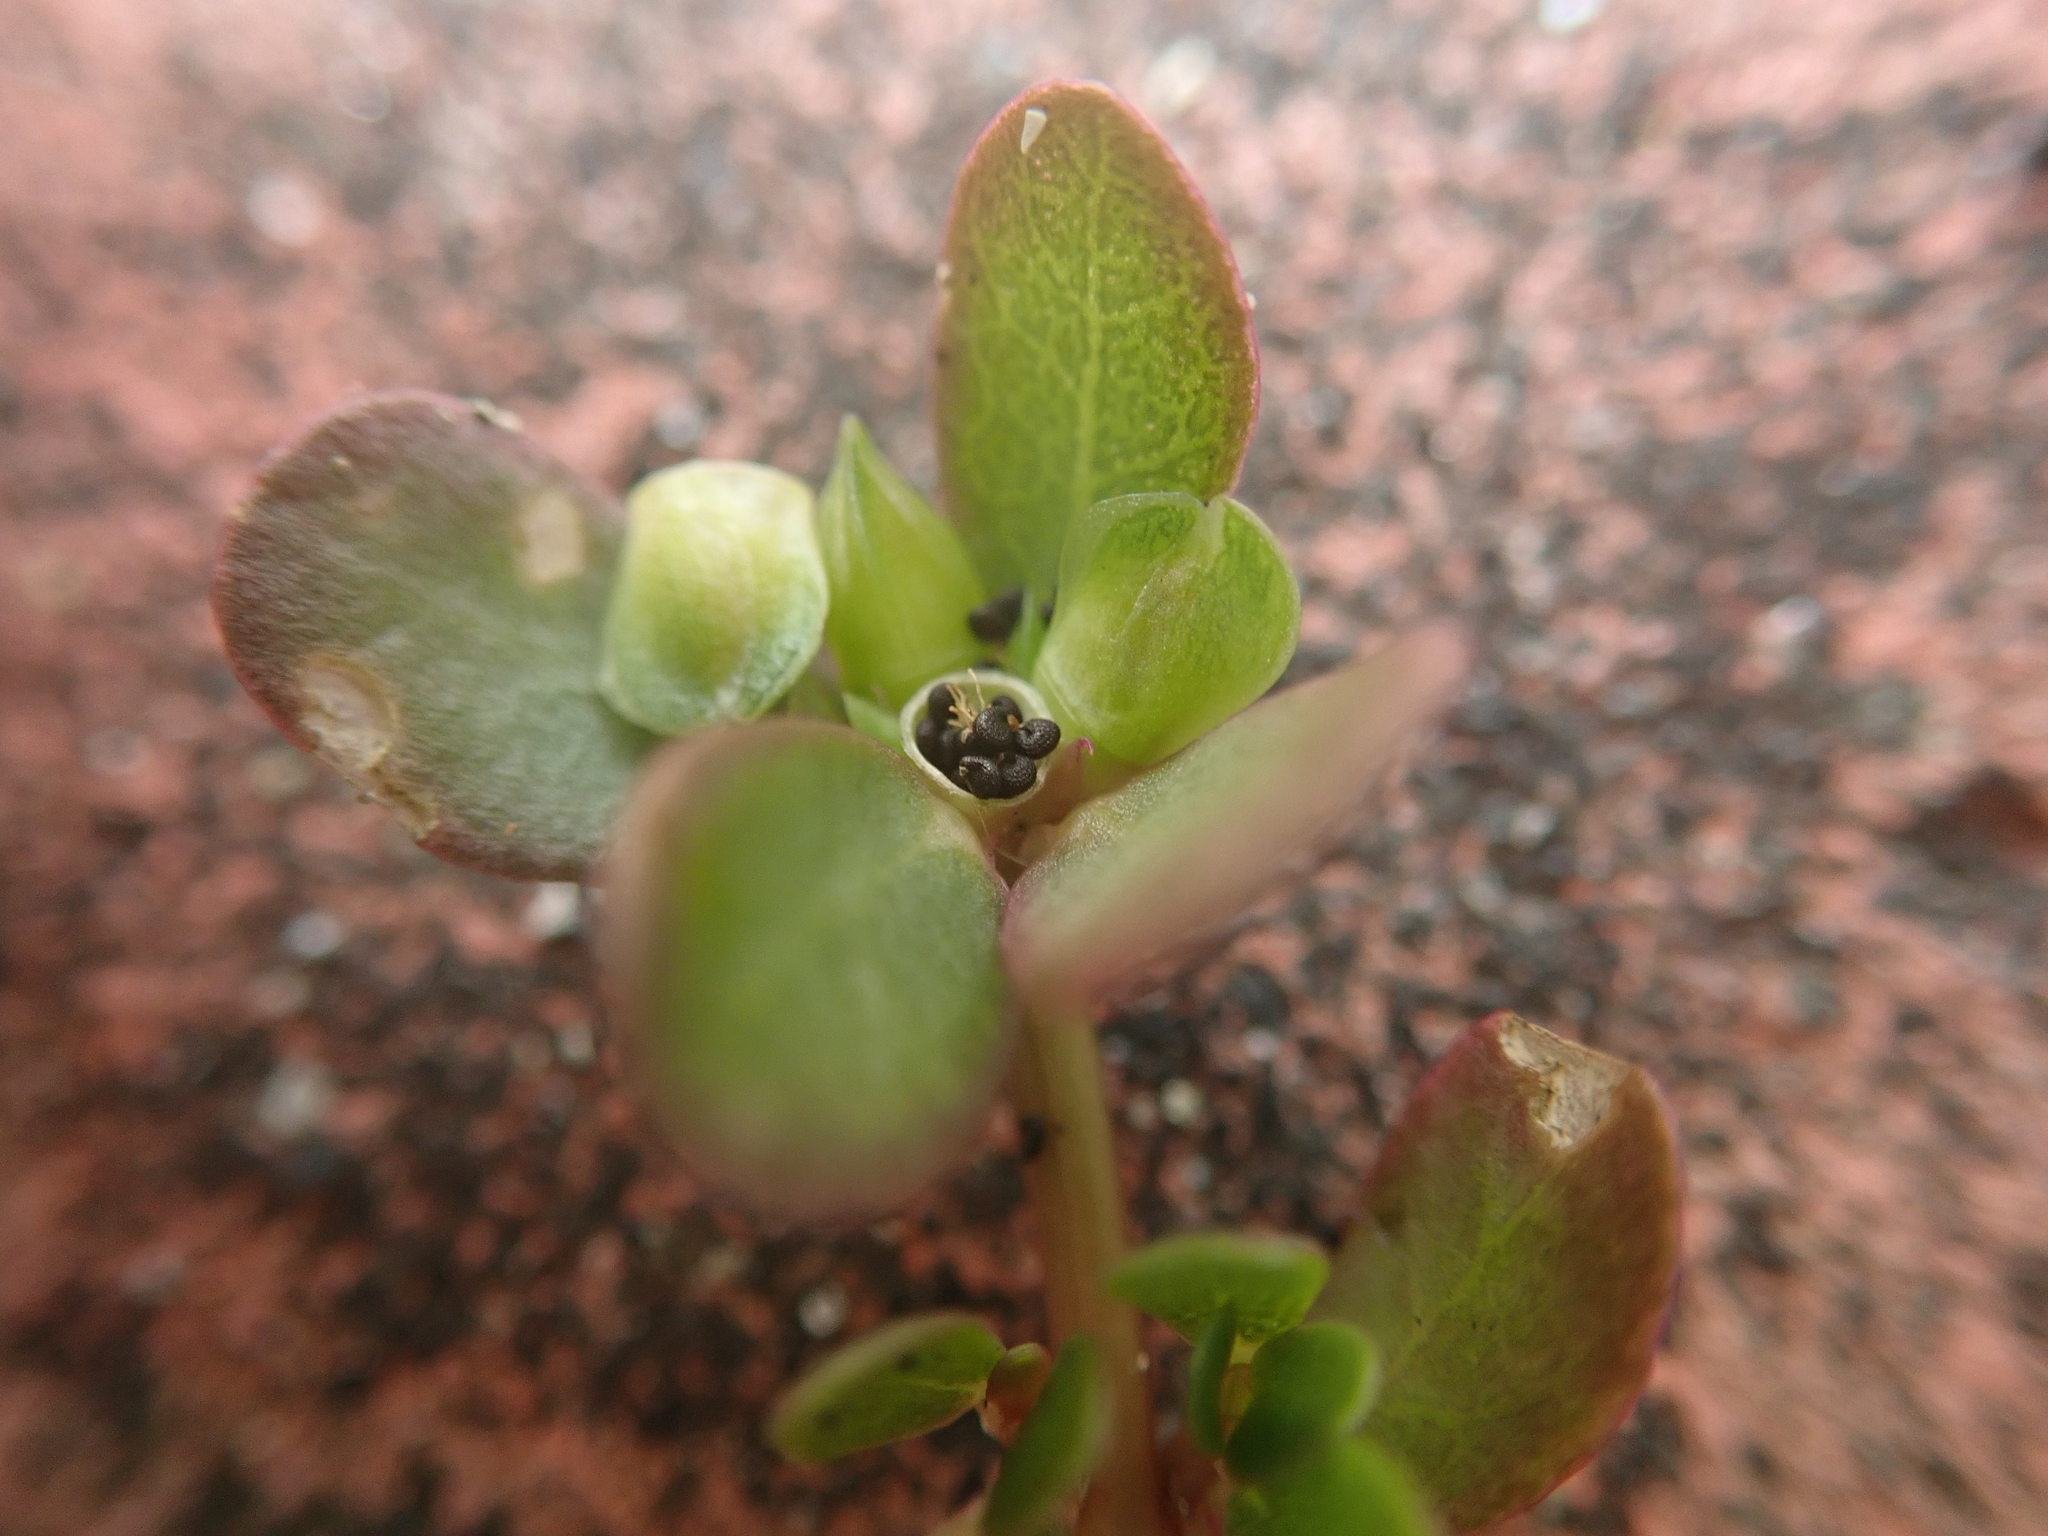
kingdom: Plantae
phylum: Tracheophyta
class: Magnoliopsida
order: Caryophyllales
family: Portulacaceae
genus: Portulaca
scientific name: Portulaca oleracea
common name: Common purslane
